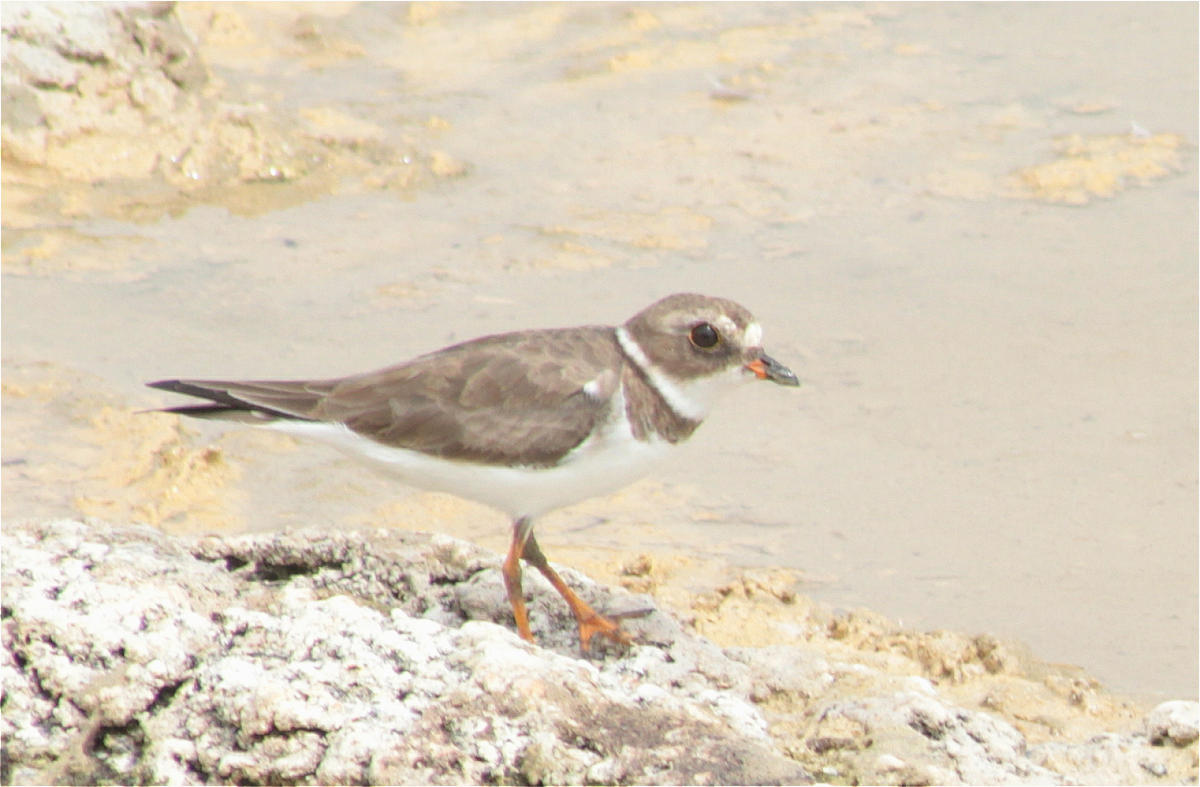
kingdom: Animalia
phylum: Chordata
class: Aves
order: Charadriiformes
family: Charadriidae
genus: Charadrius
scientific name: Charadrius semipalmatus
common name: Semipalmated plover
